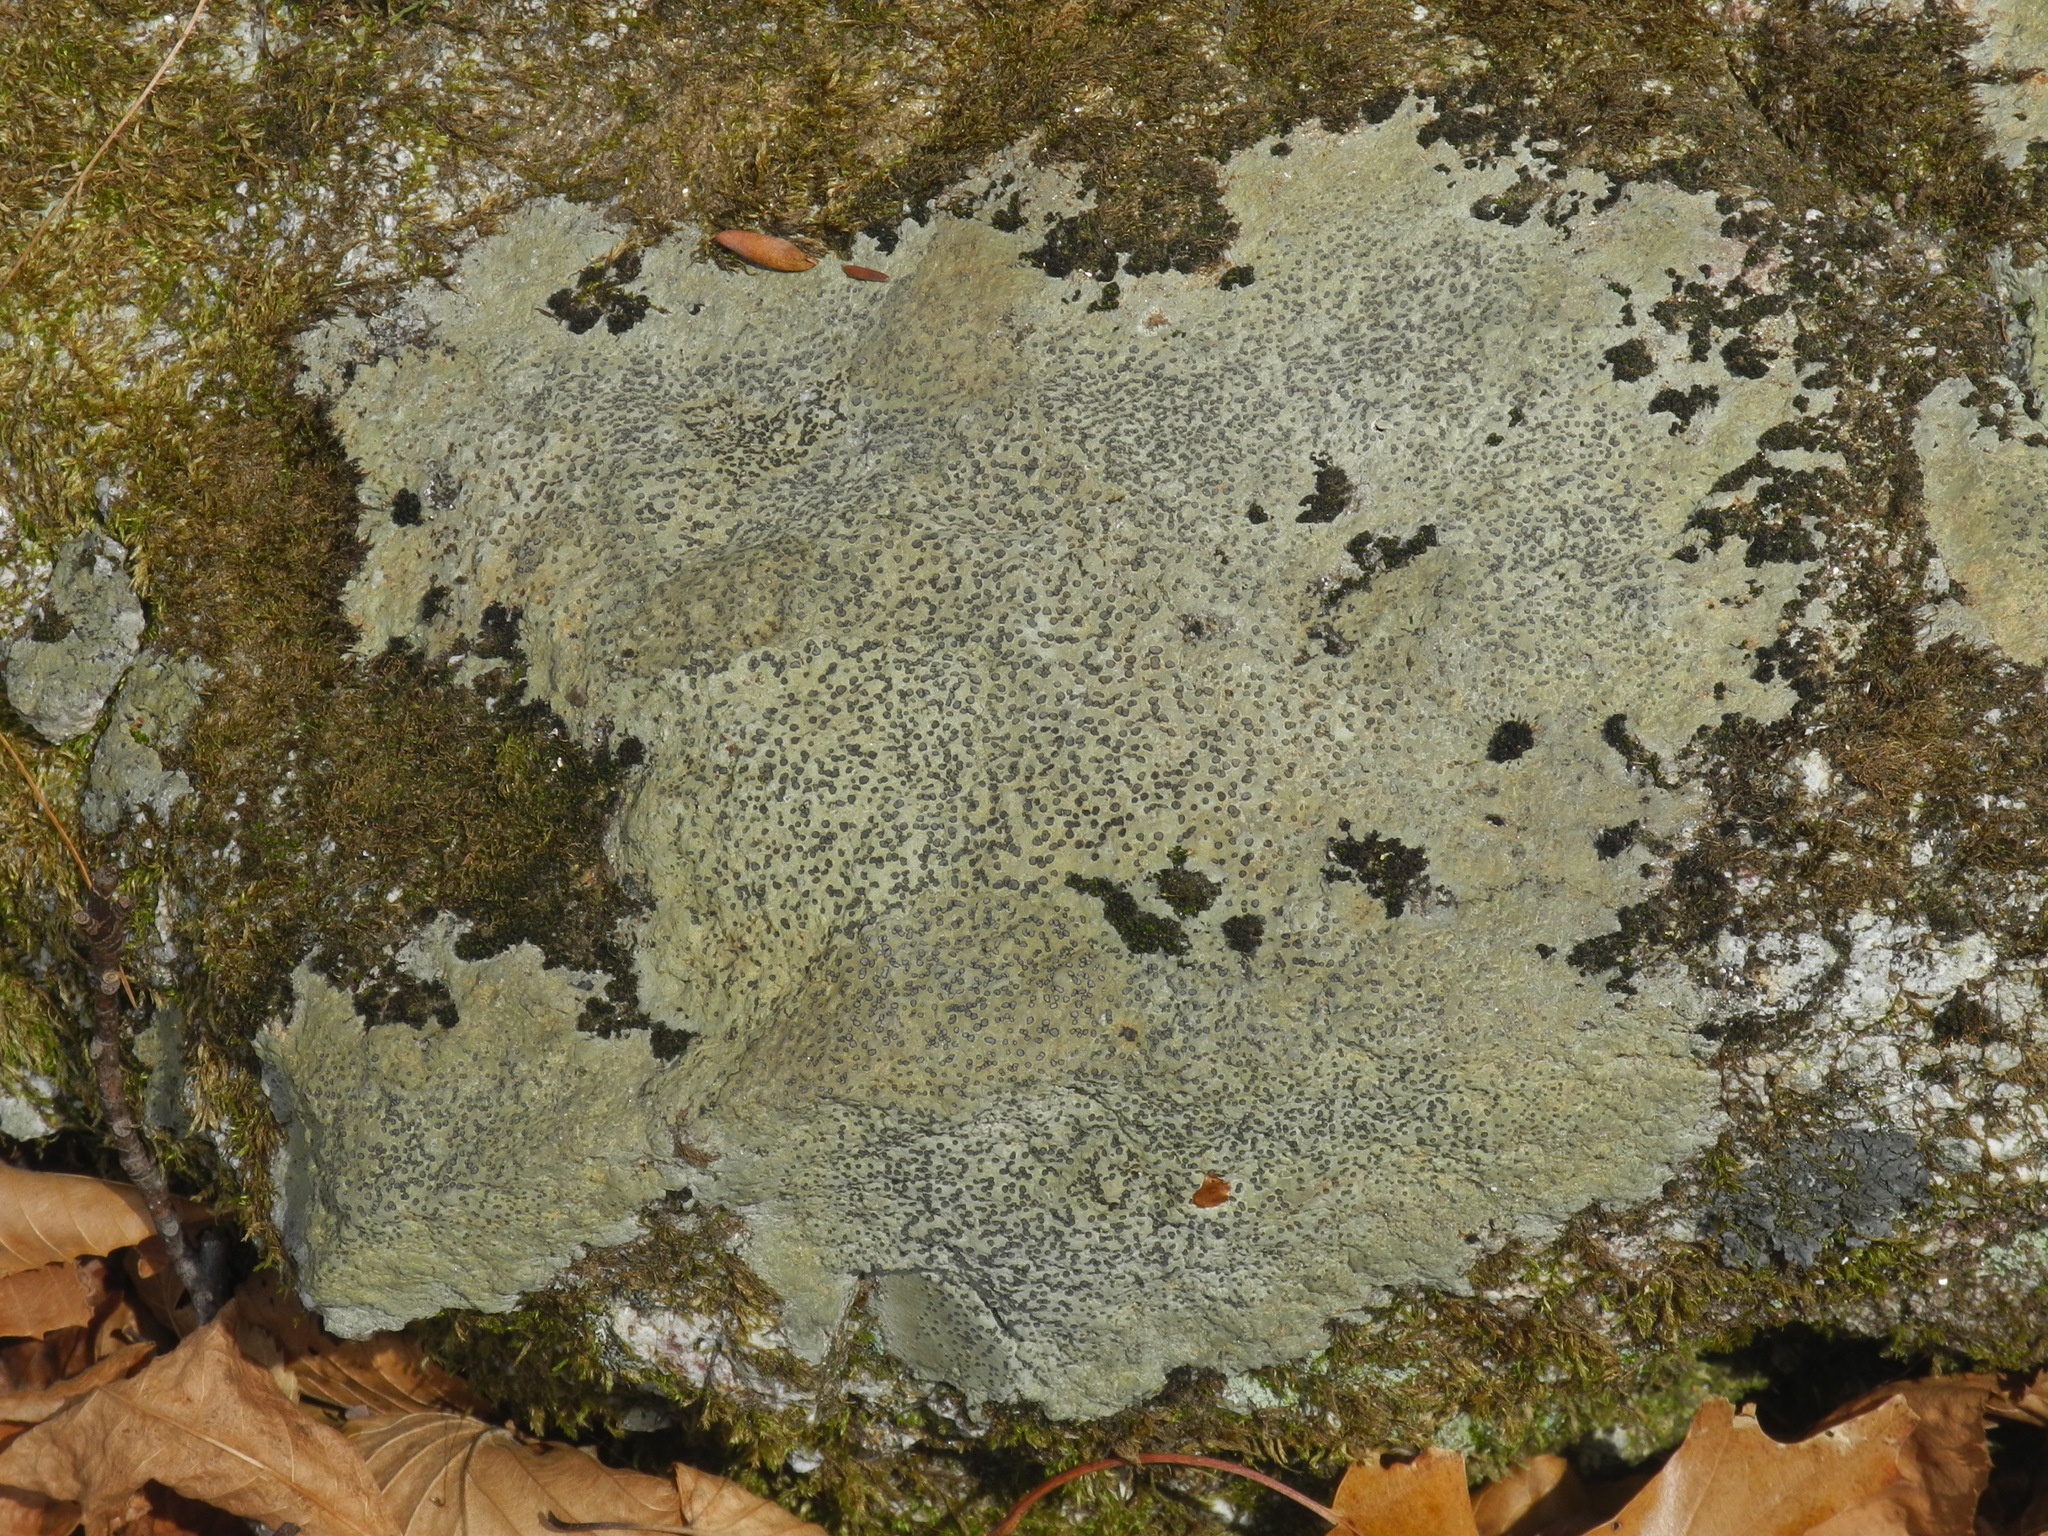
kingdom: Fungi
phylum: Ascomycota
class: Lecanoromycetes
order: Lecideales
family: Lecideaceae
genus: Porpidia
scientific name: Porpidia albocaerulescens
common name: Smokey-eyed boulder lichen
